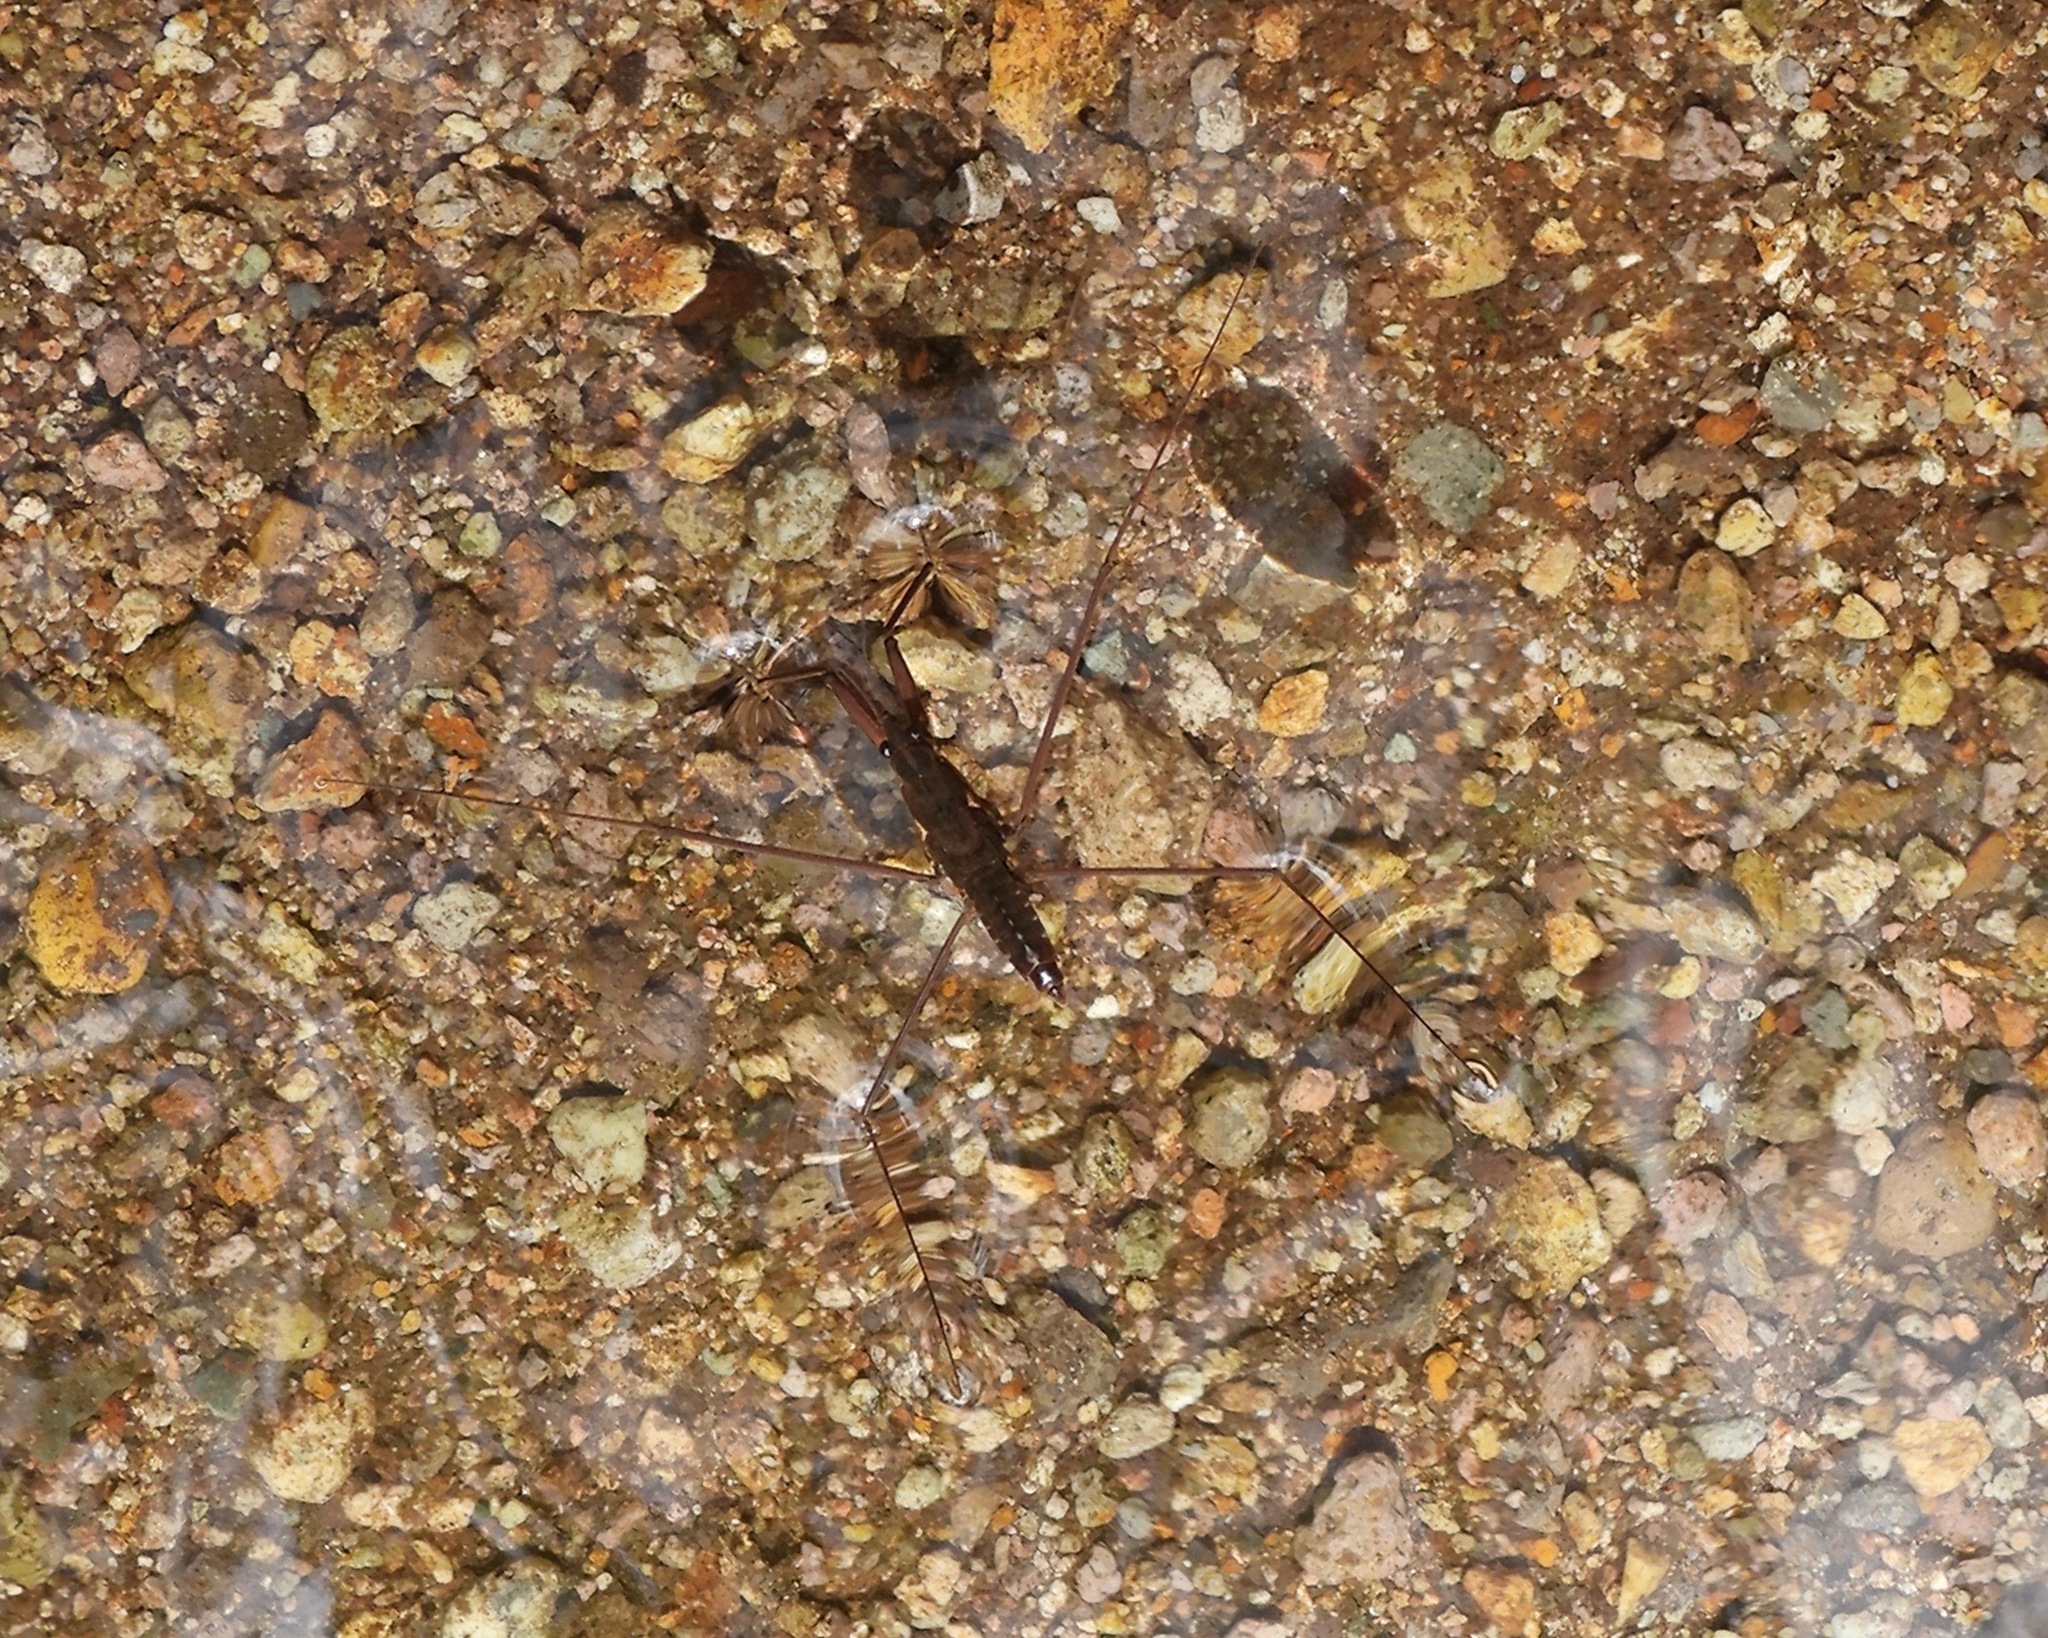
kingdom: Animalia
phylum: Arthropoda
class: Insecta
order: Hemiptera
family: Gerridae
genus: Aquarius
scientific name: Aquarius amplus
